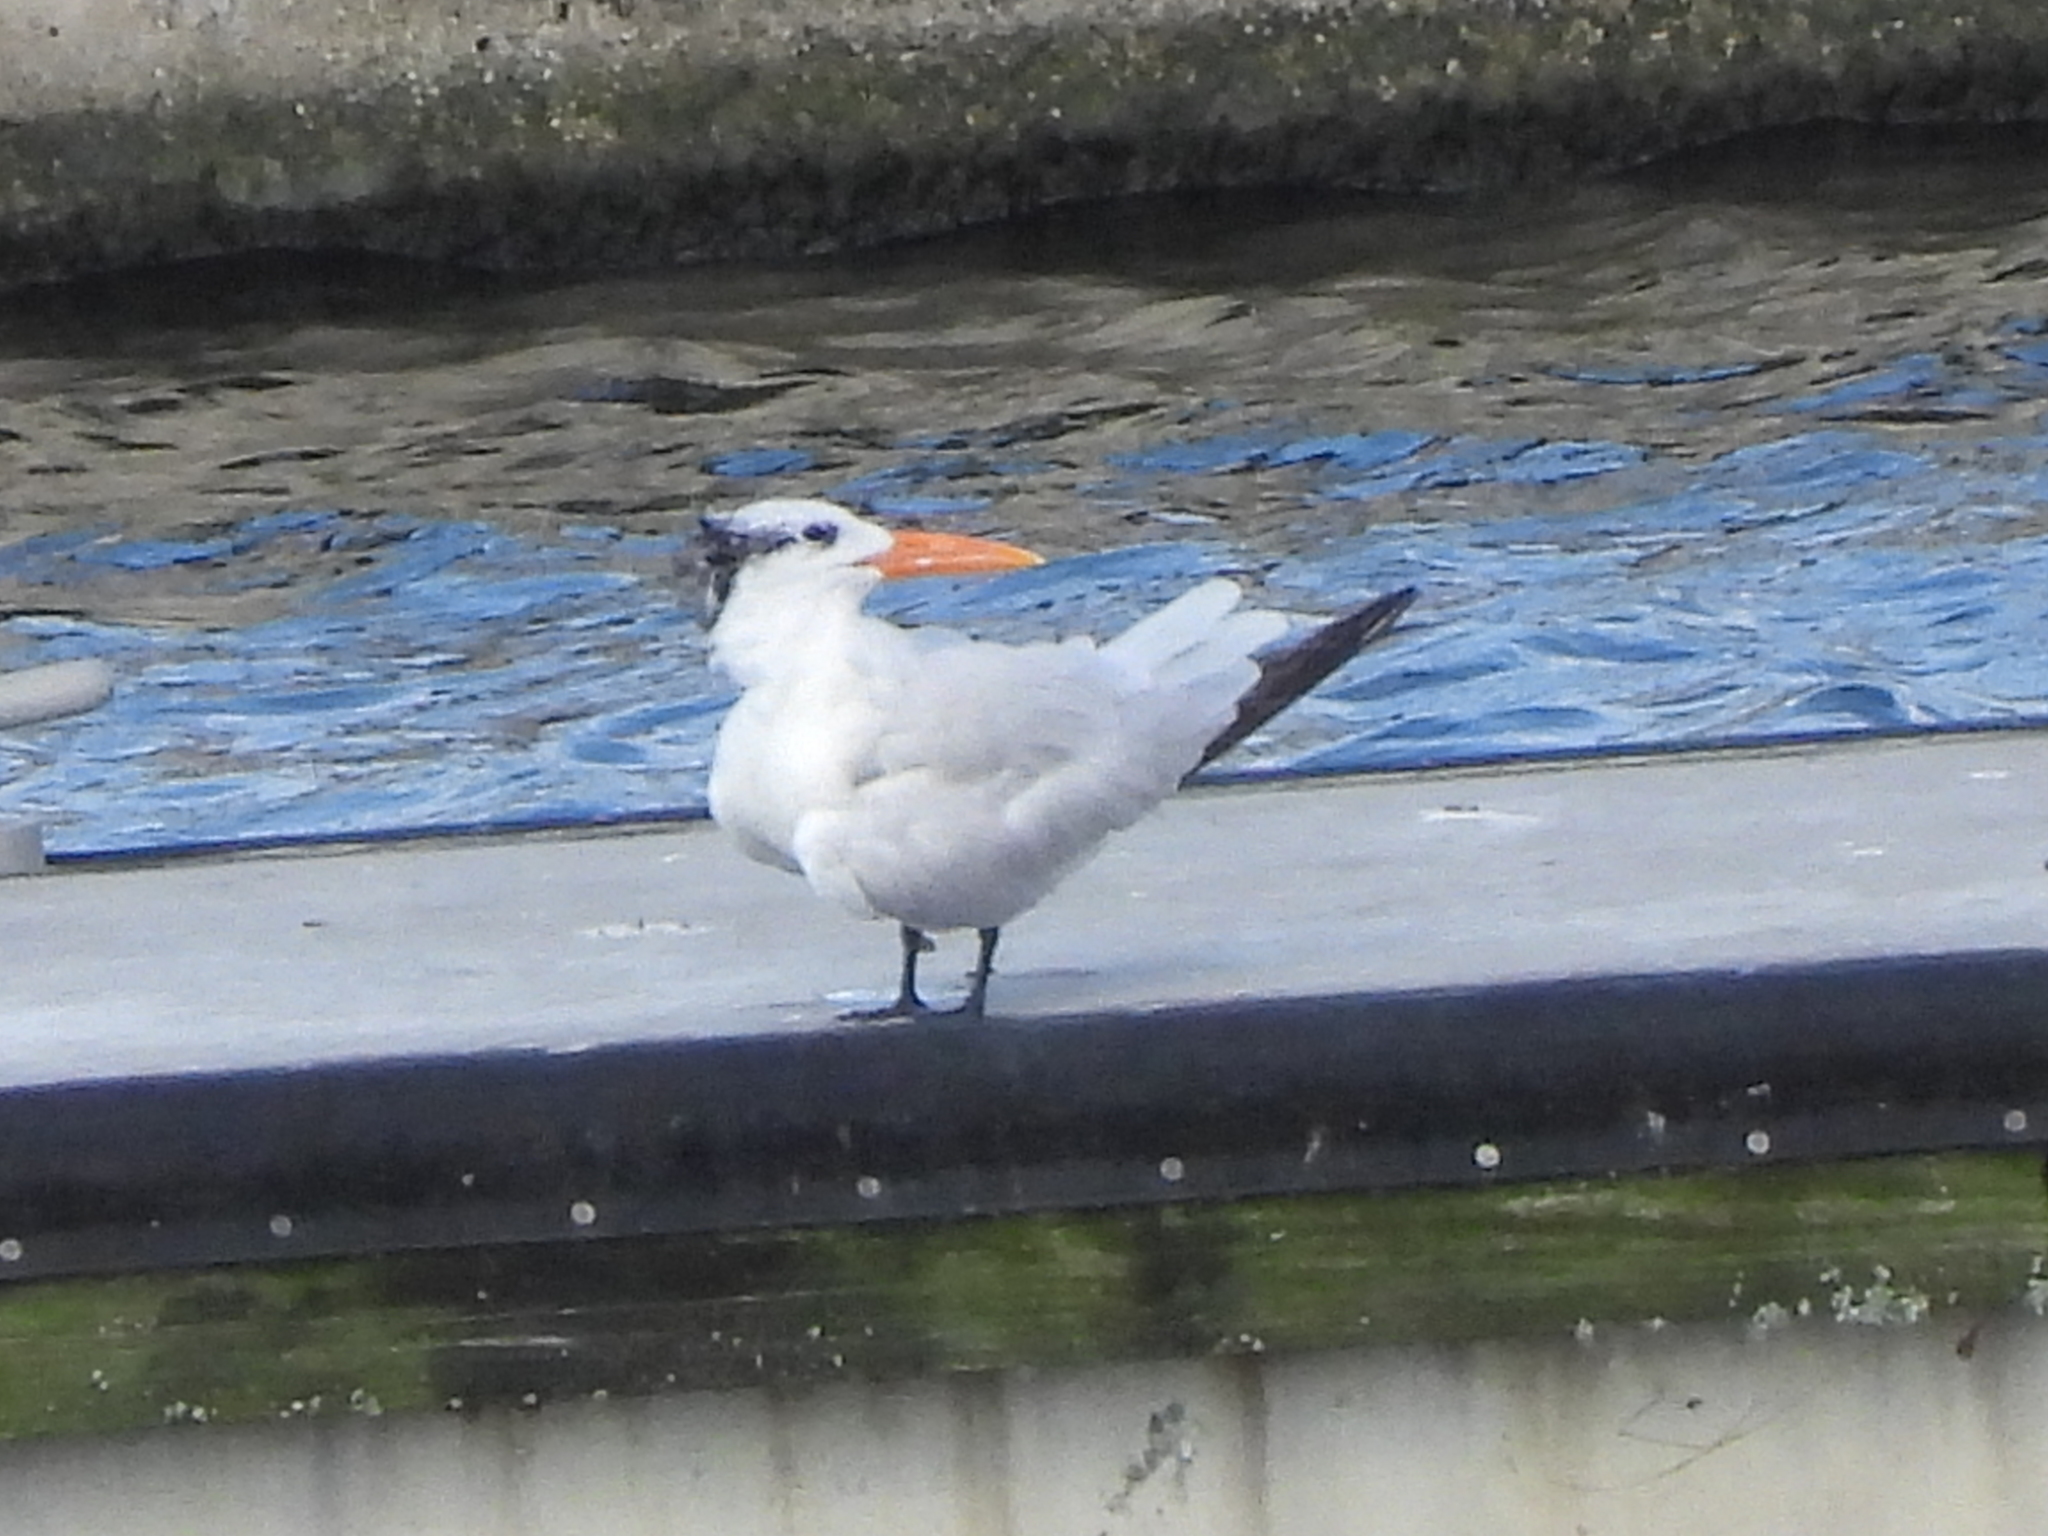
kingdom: Animalia
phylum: Chordata
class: Aves
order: Charadriiformes
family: Laridae
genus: Thalasseus
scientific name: Thalasseus maximus
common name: Royal tern
